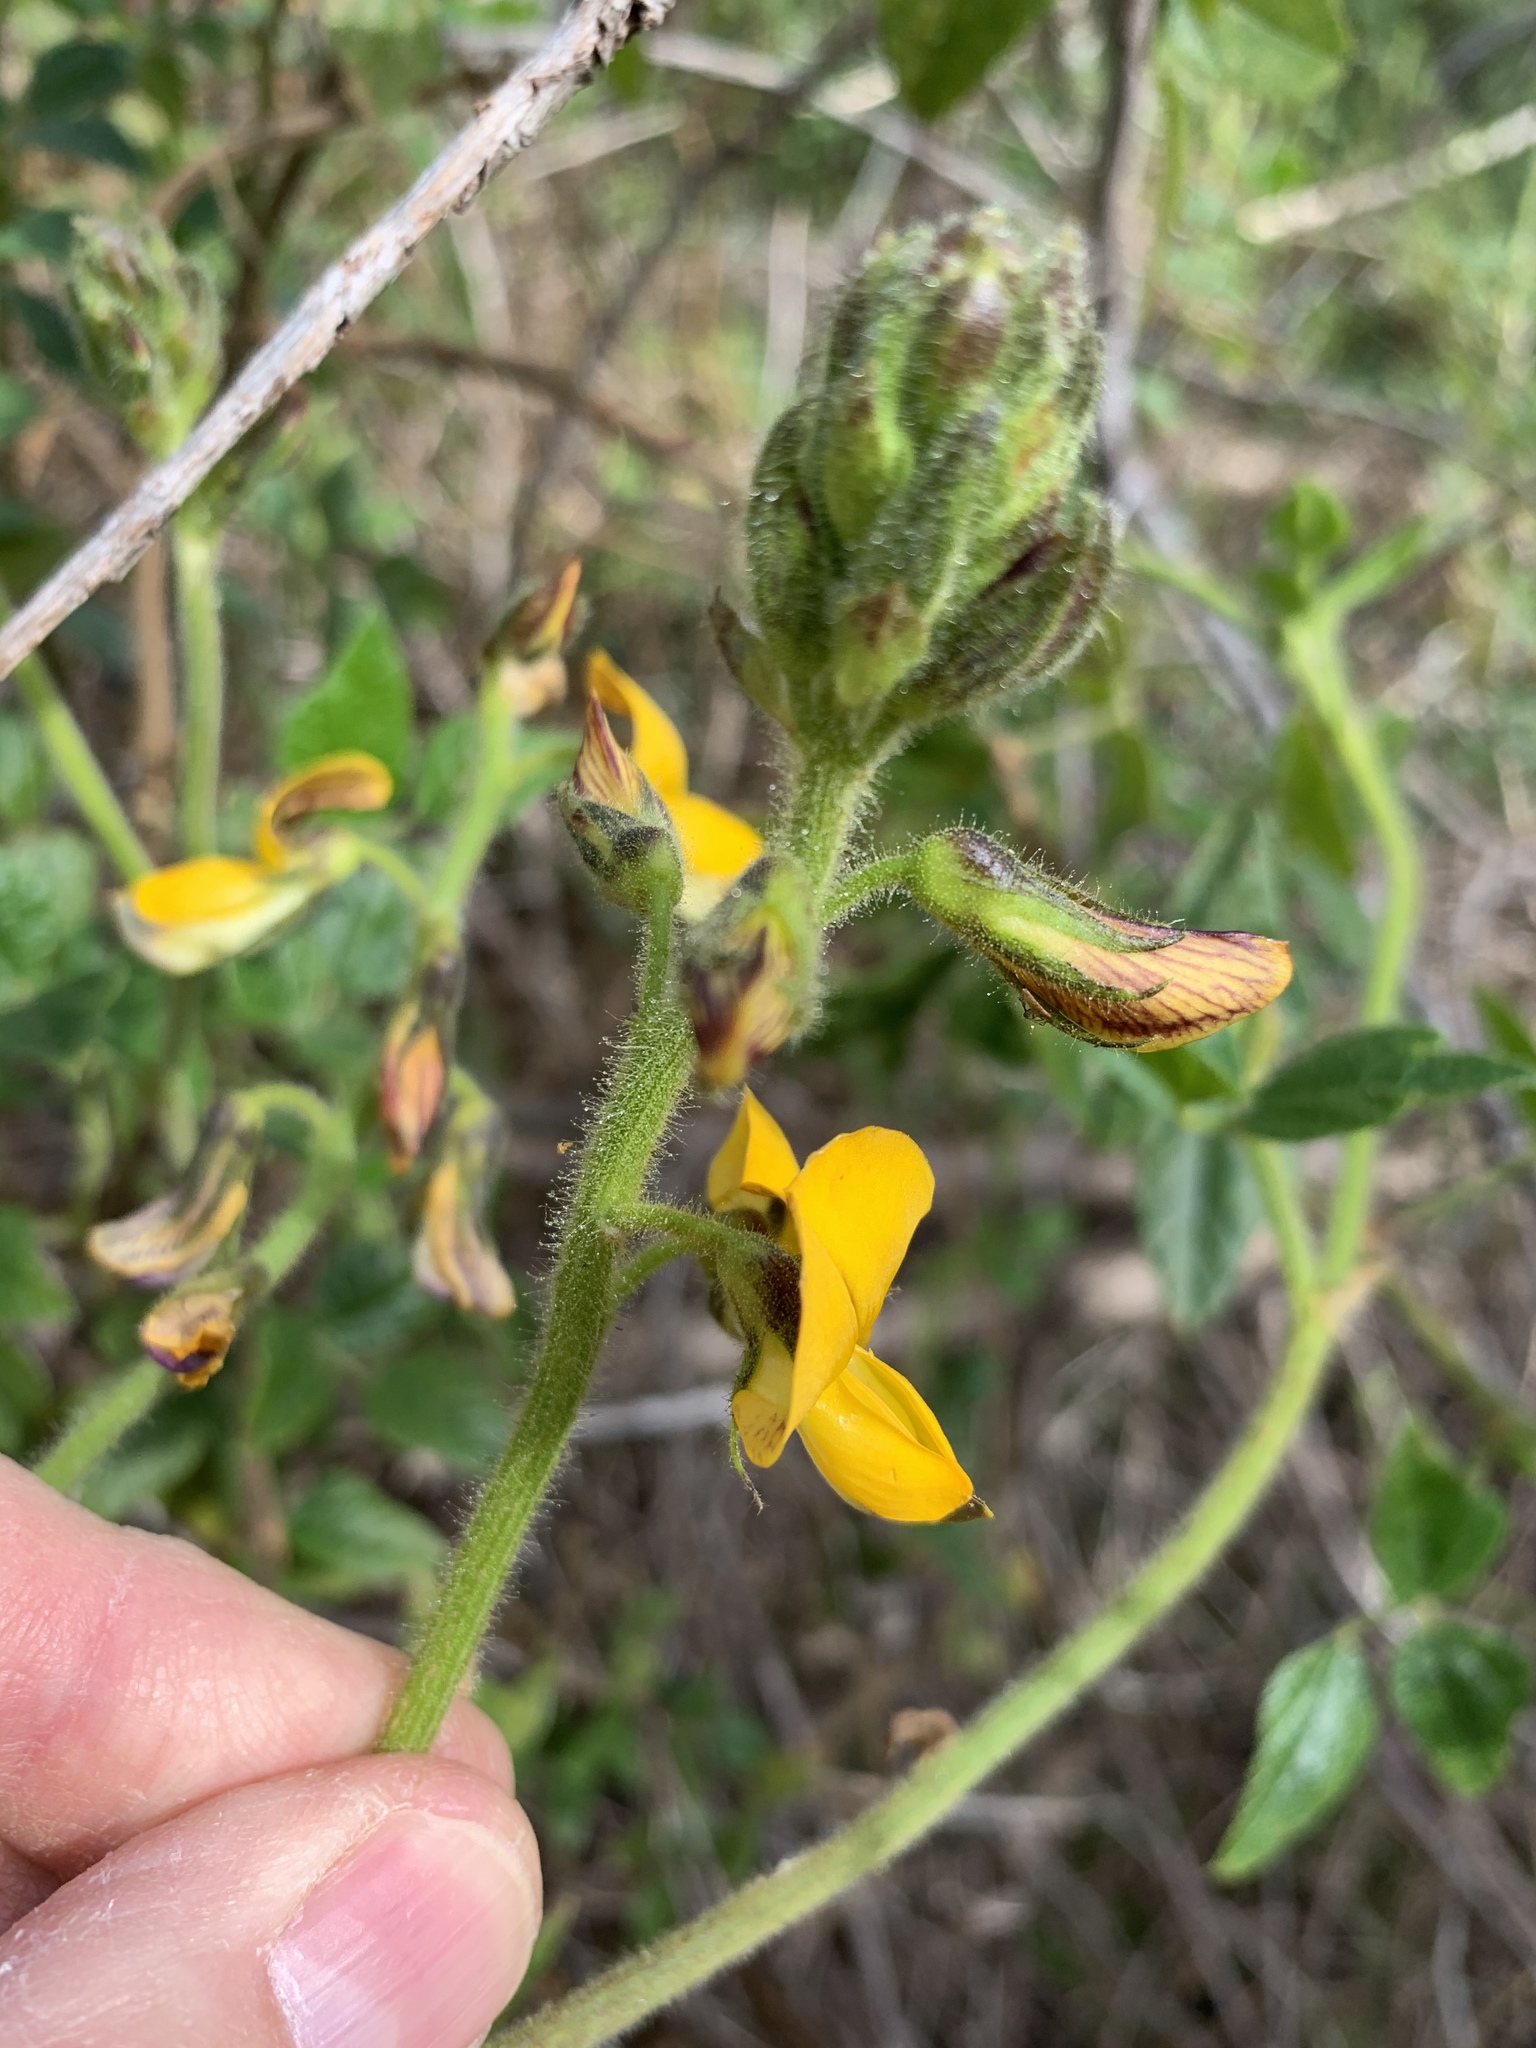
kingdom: Plantae
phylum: Tracheophyta
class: Magnoliopsida
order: Fabales
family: Fabaceae
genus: Bolusafra
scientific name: Bolusafra bituminosa
